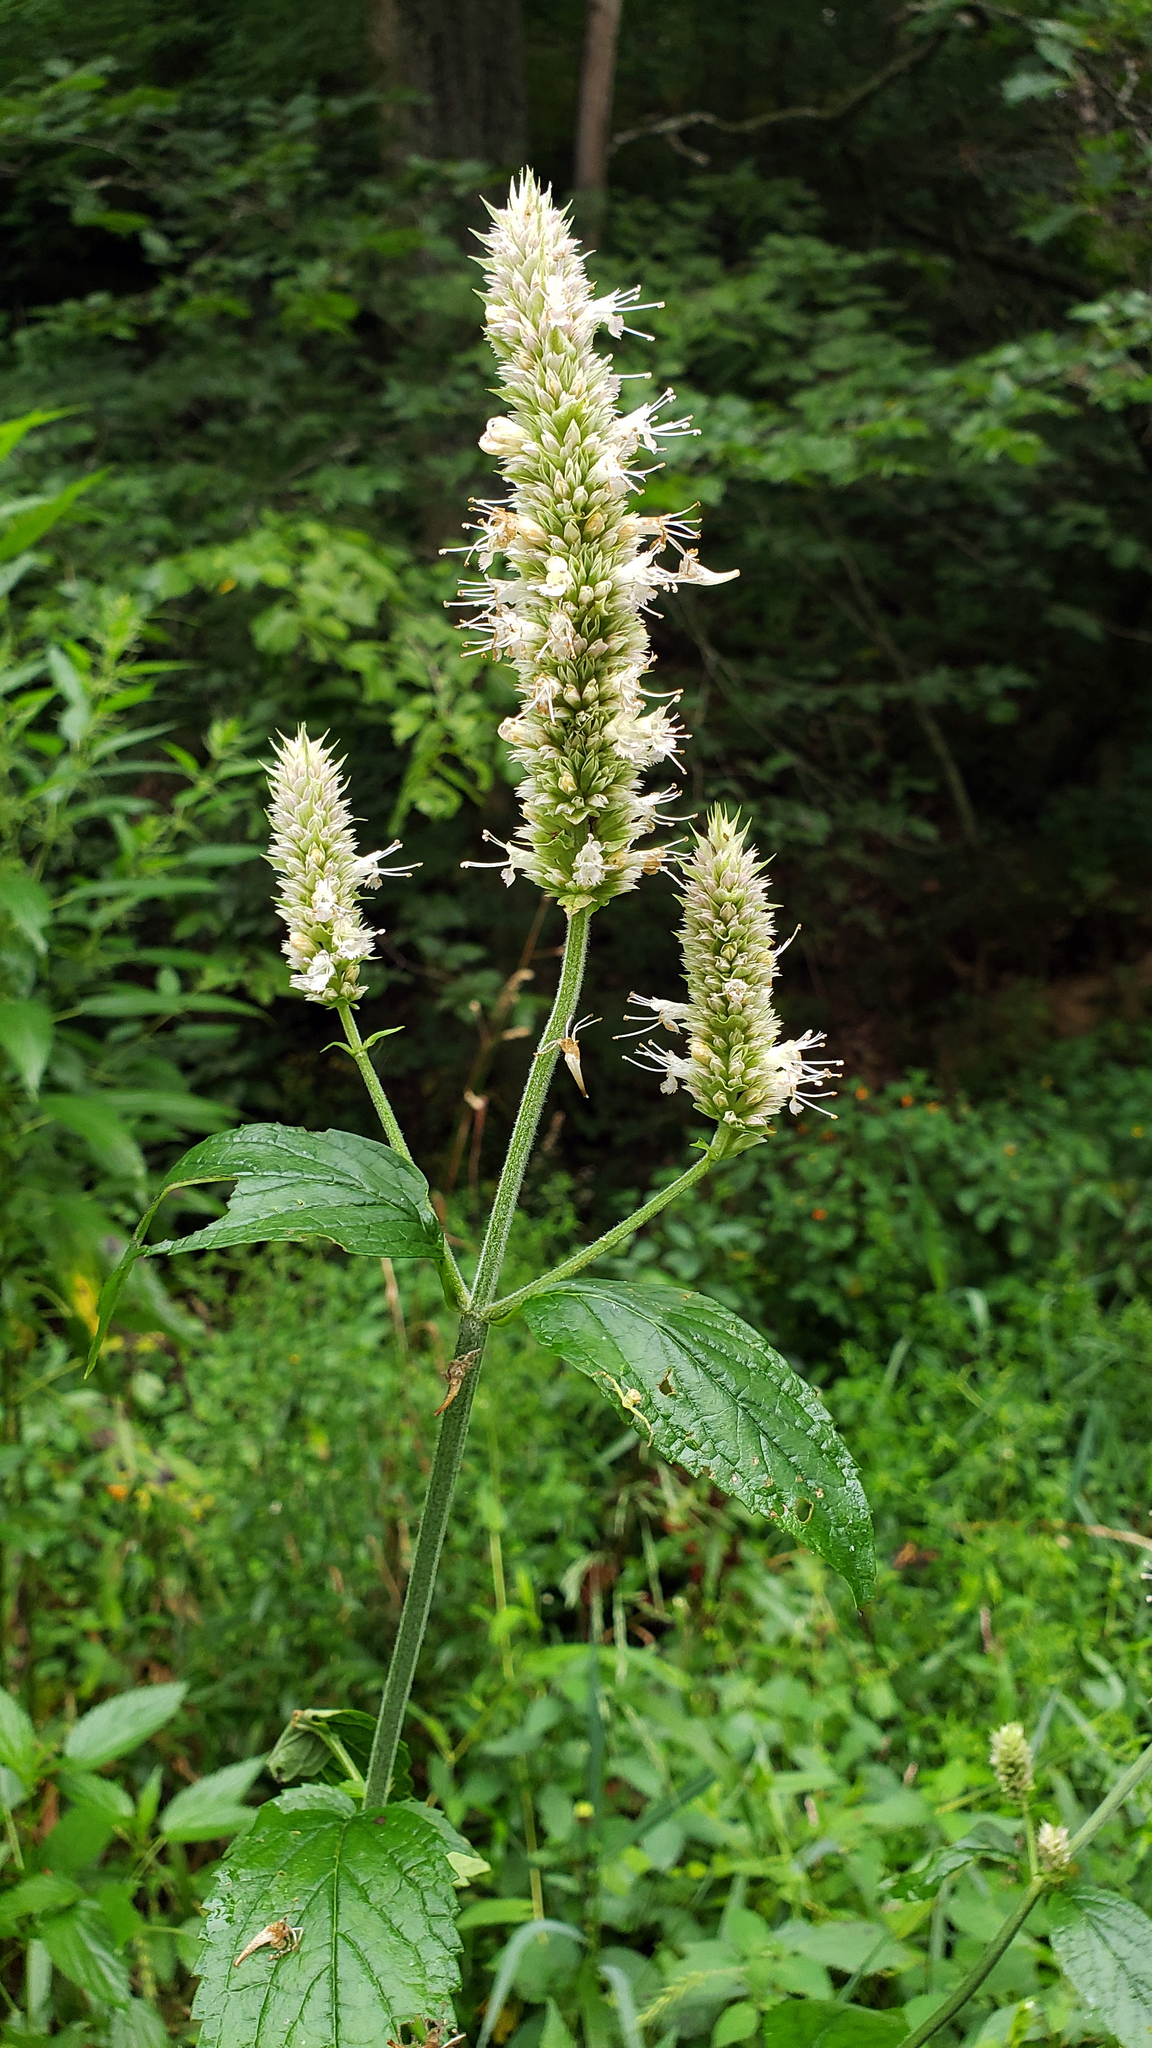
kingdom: Plantae
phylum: Tracheophyta
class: Magnoliopsida
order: Lamiales
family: Lamiaceae
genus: Agastache
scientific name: Agastache scrophulariifolia
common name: Figwort giant hyssop
